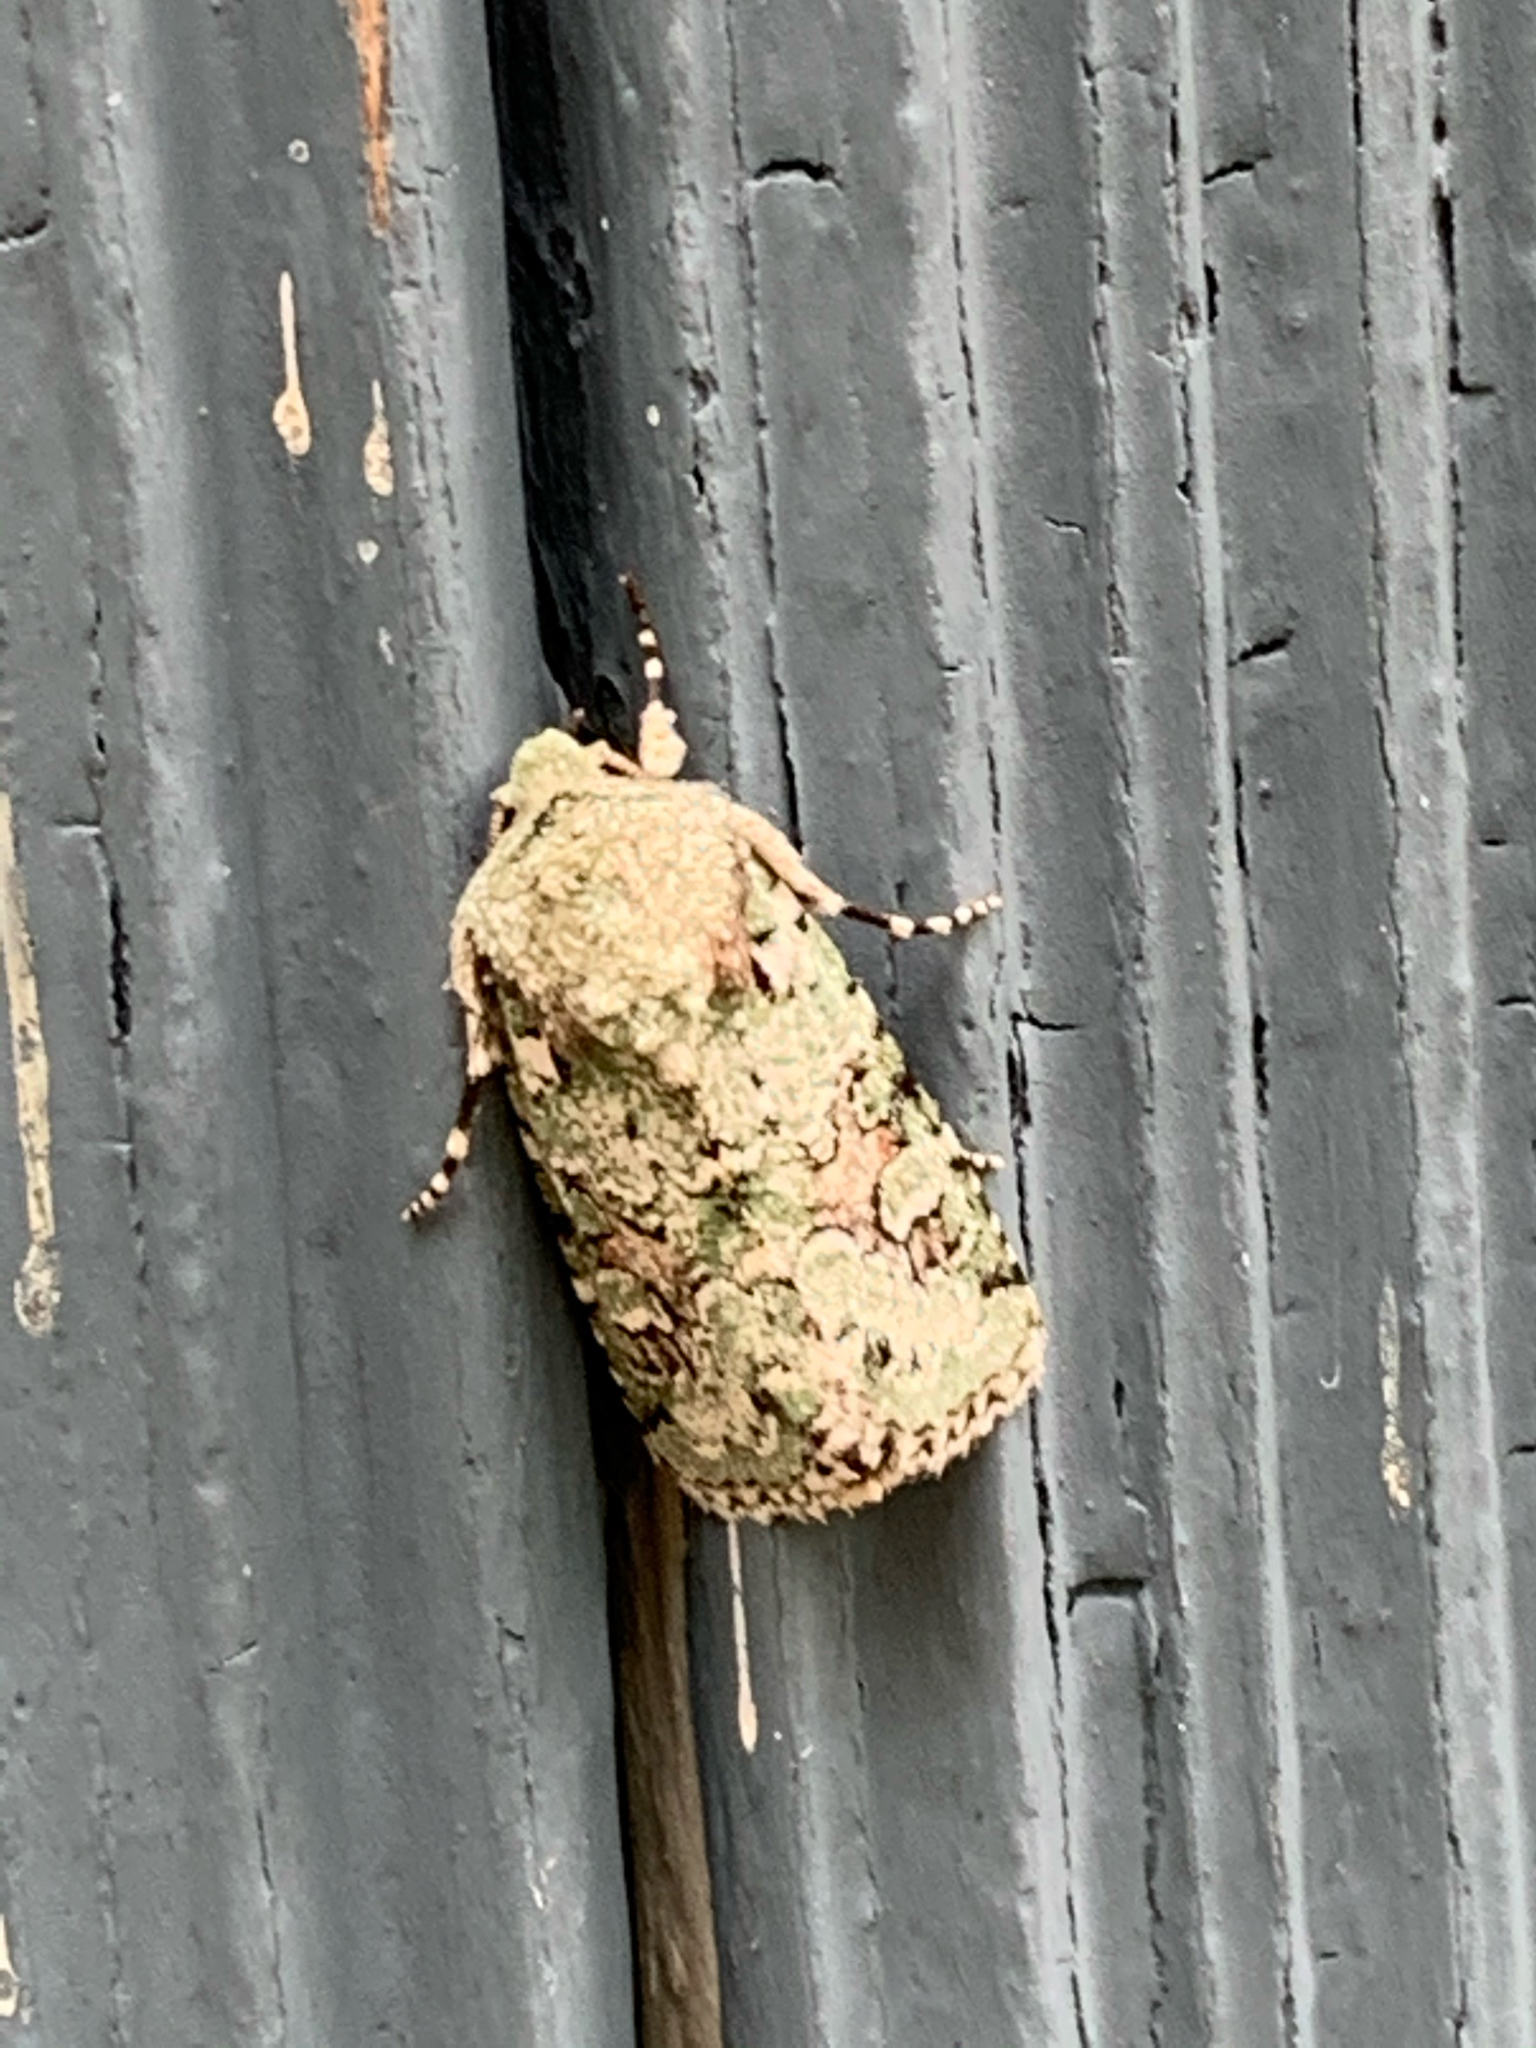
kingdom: Animalia
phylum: Arthropoda
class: Insecta
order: Lepidoptera
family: Noctuidae
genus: Lacinipolia
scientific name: Lacinipolia laudabilis
